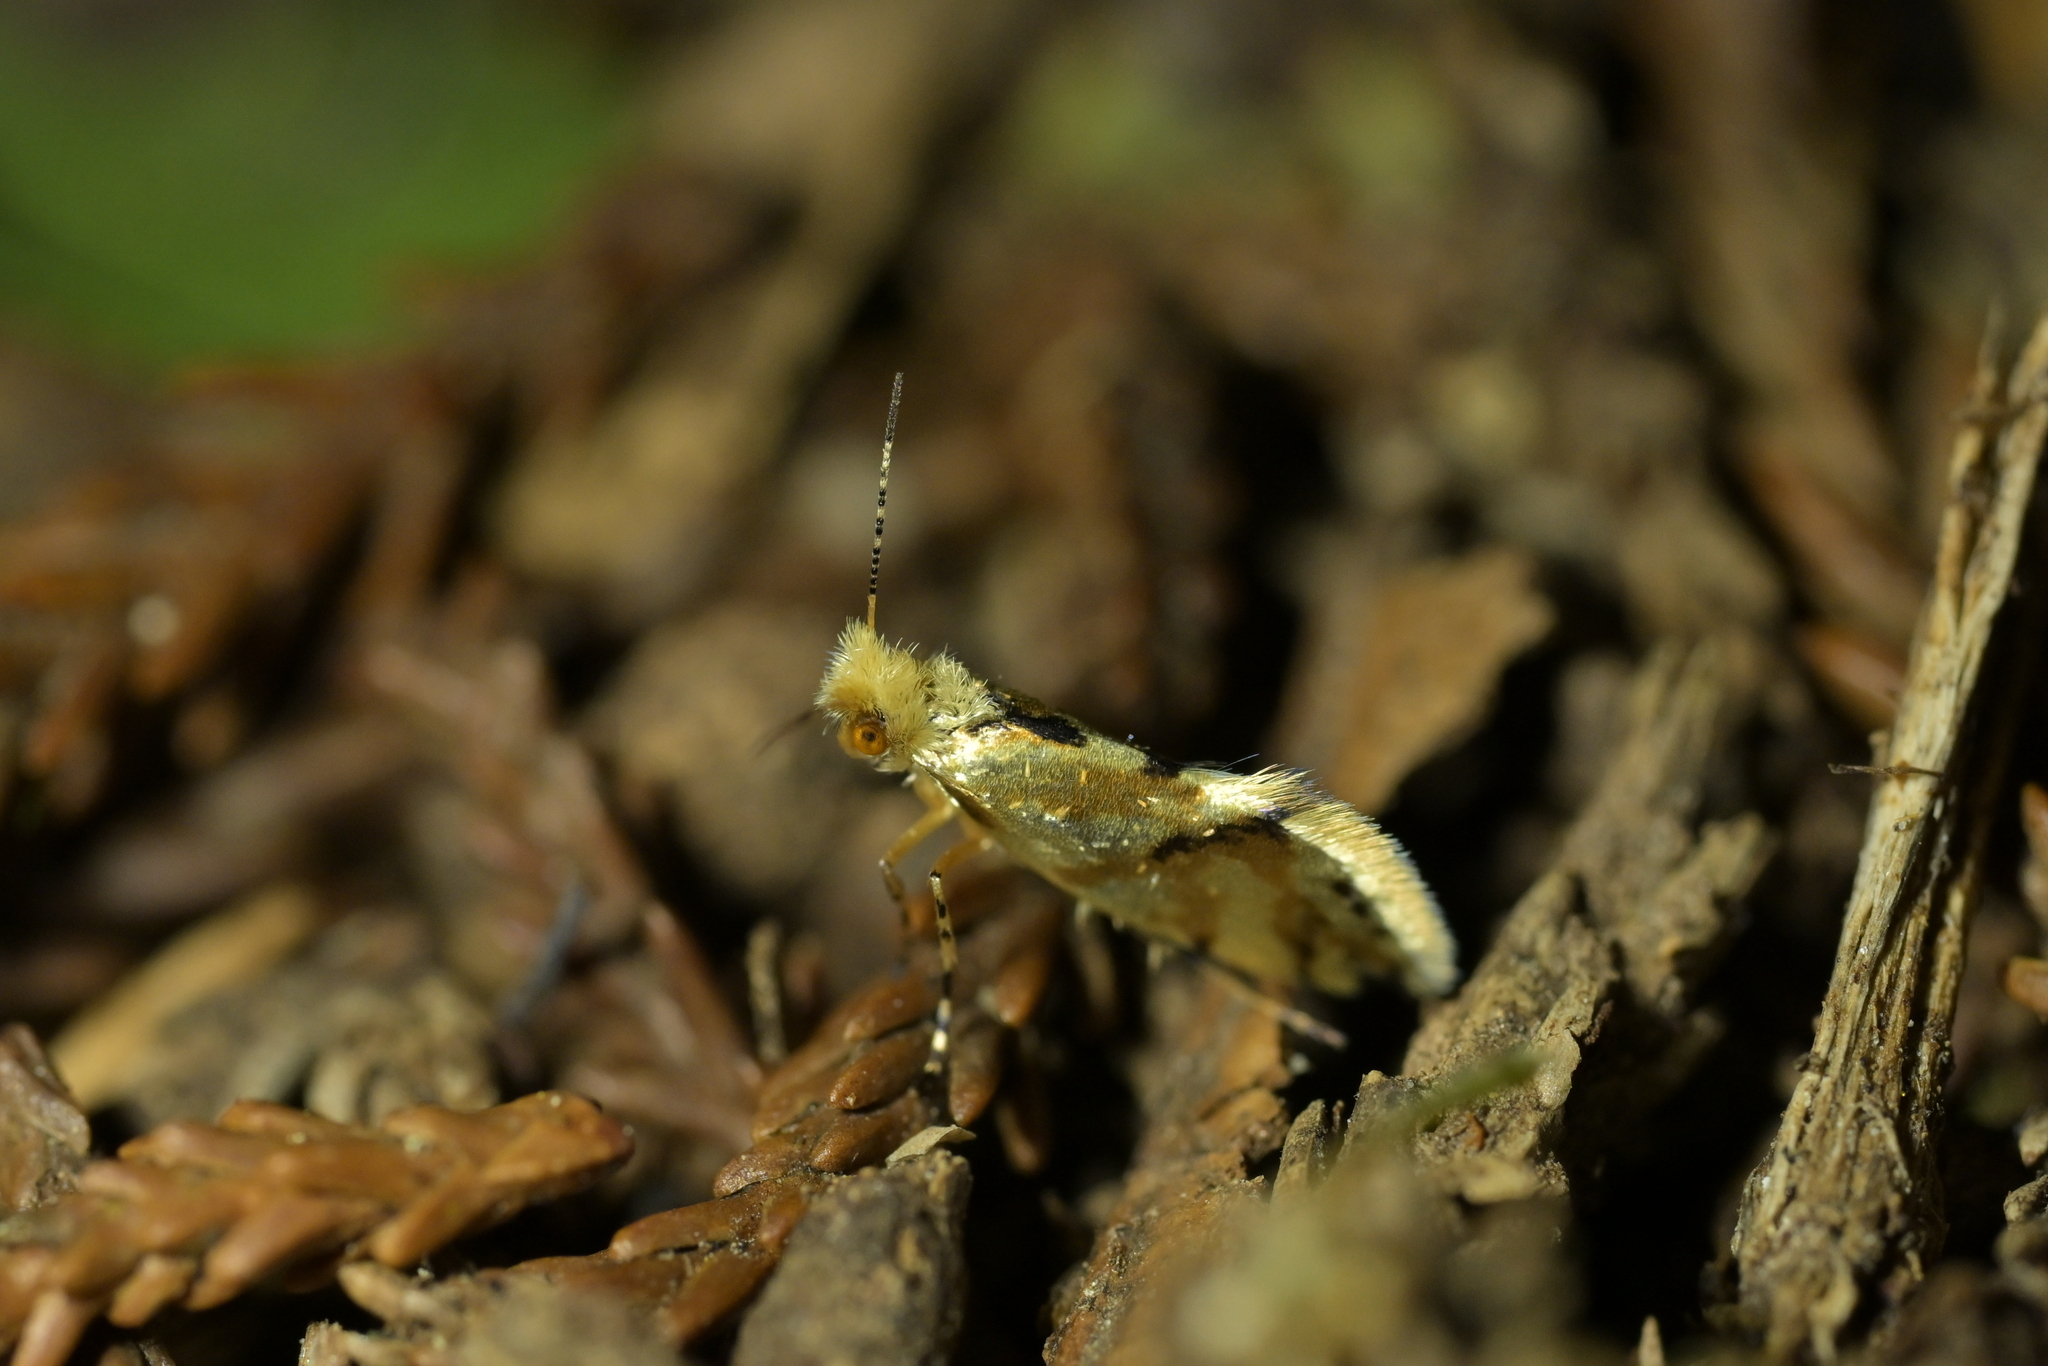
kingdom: Animalia
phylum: Arthropoda
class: Insecta
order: Lepidoptera
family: Micropterigidae
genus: Sabatinca
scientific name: Sabatinca chalcophanes
